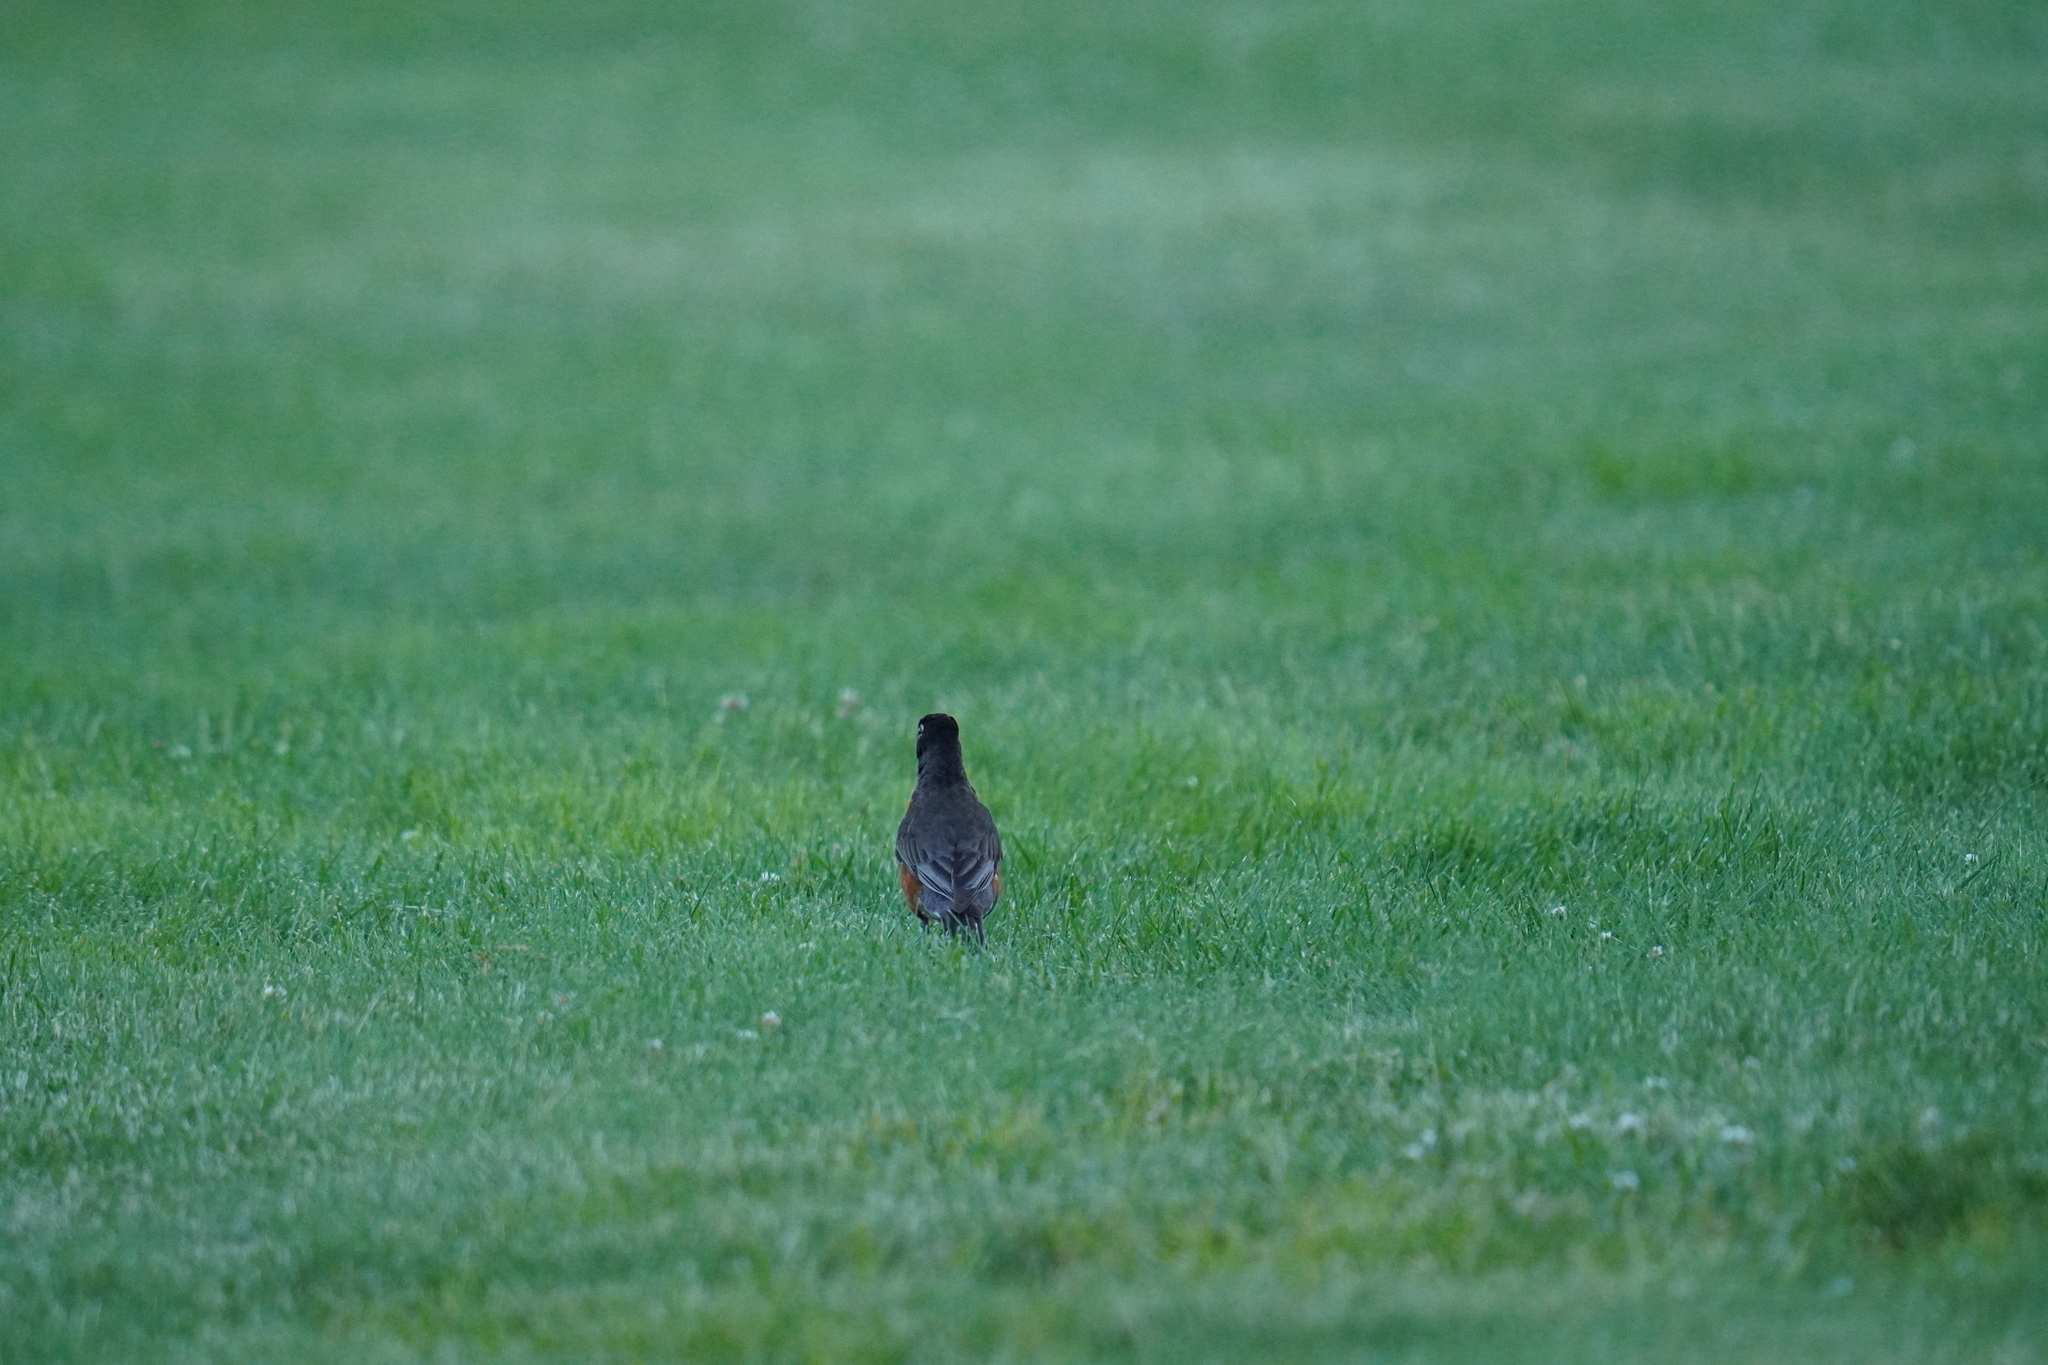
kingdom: Animalia
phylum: Chordata
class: Aves
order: Passeriformes
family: Turdidae
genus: Turdus
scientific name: Turdus migratorius
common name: American robin
